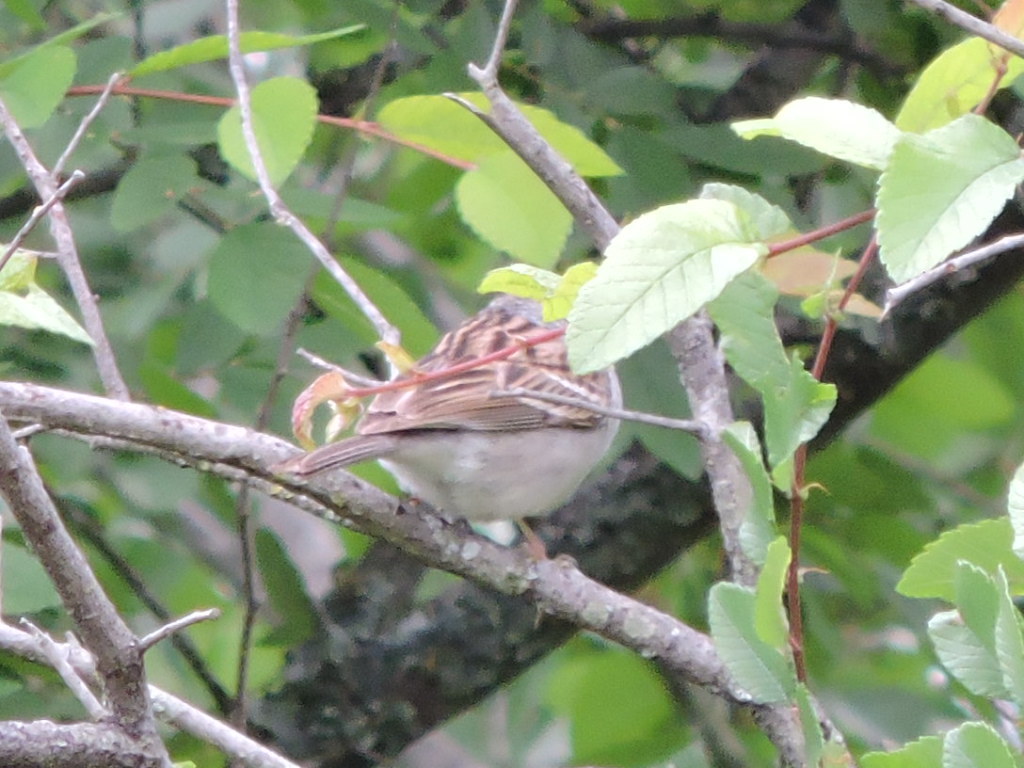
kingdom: Animalia
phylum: Chordata
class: Aves
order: Passeriformes
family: Passerellidae
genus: Spizella
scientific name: Spizella passerina
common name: Chipping sparrow
